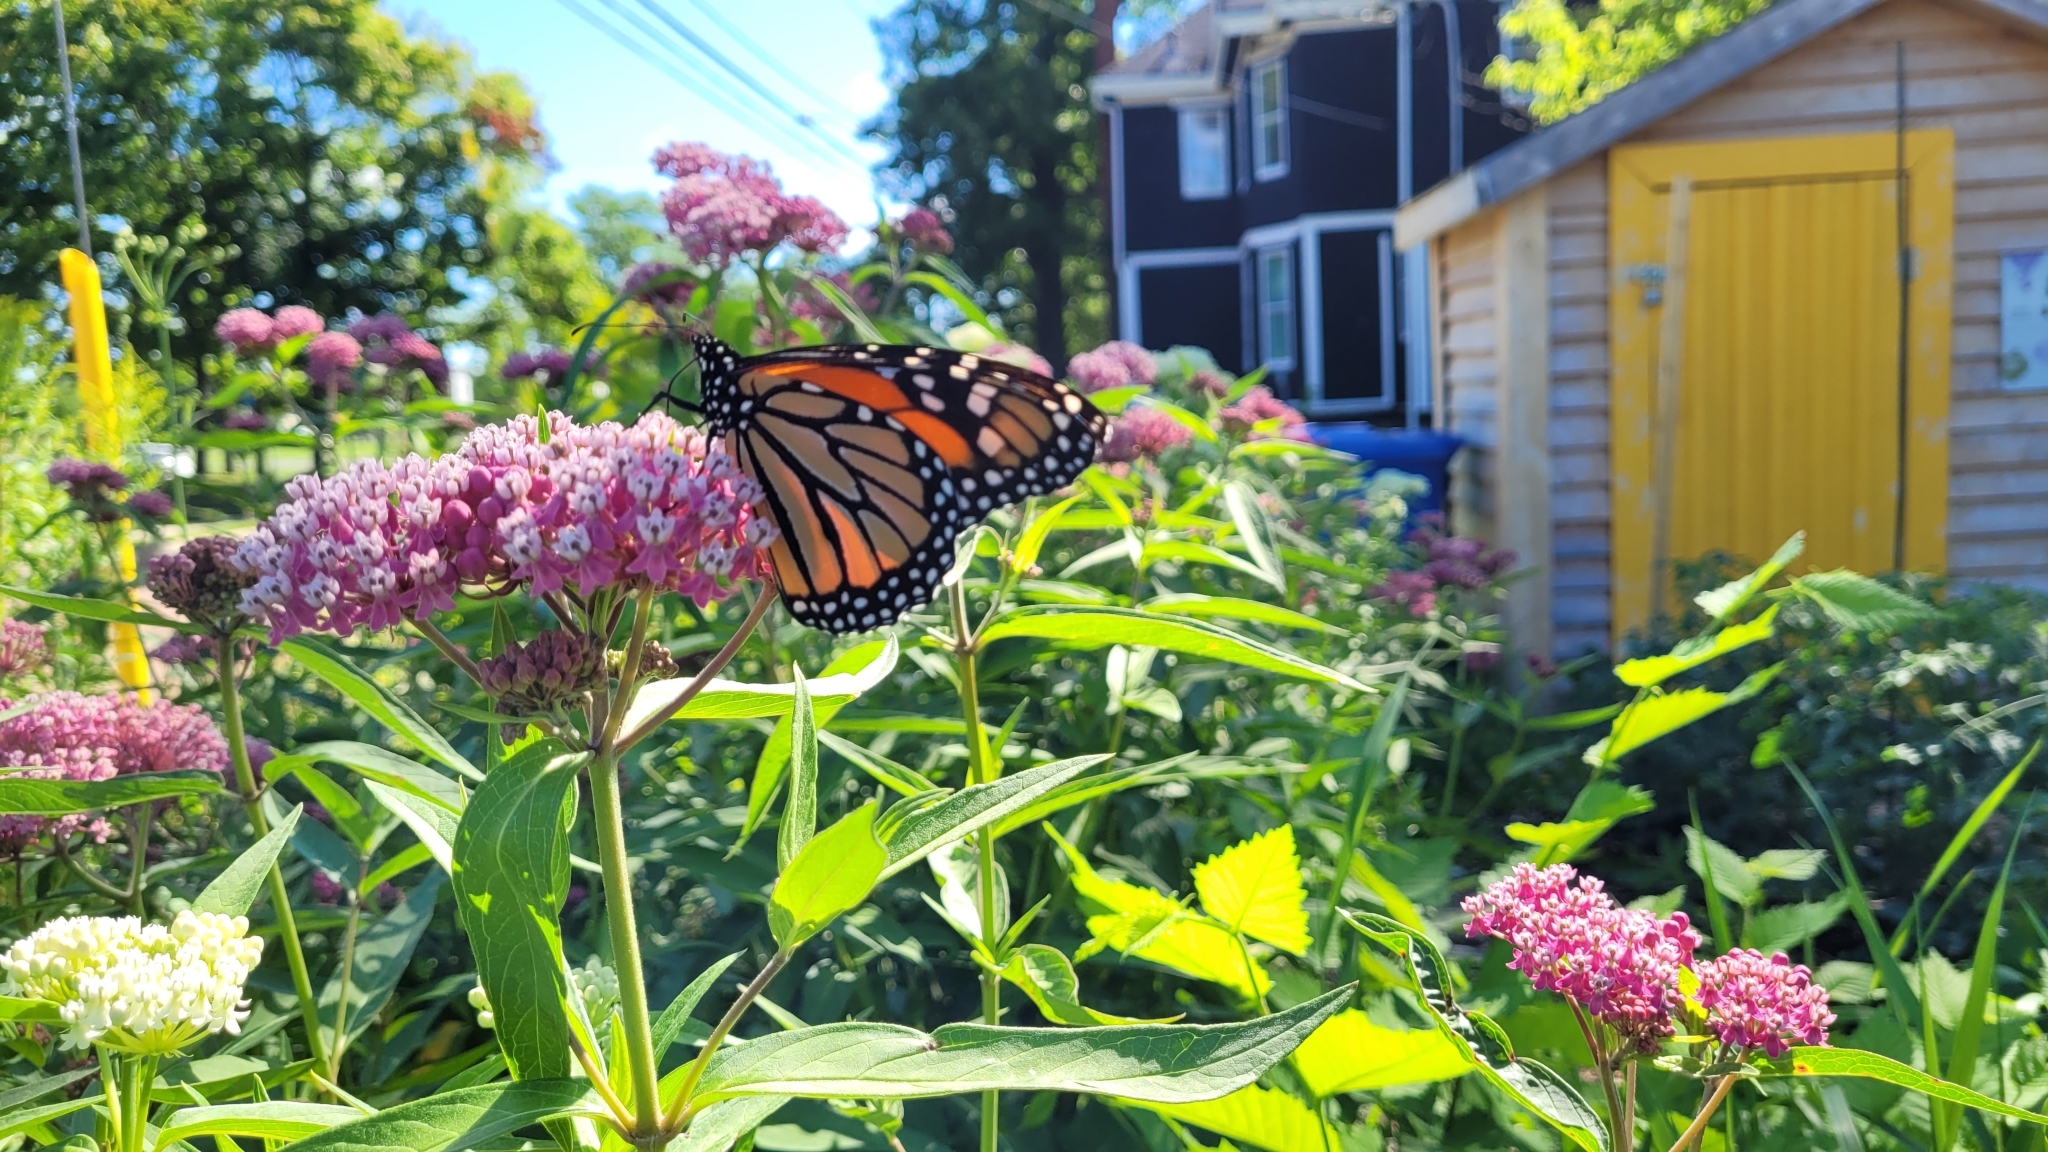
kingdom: Animalia
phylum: Arthropoda
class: Insecta
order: Lepidoptera
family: Nymphalidae
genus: Danaus
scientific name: Danaus plexippus
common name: Monarch
